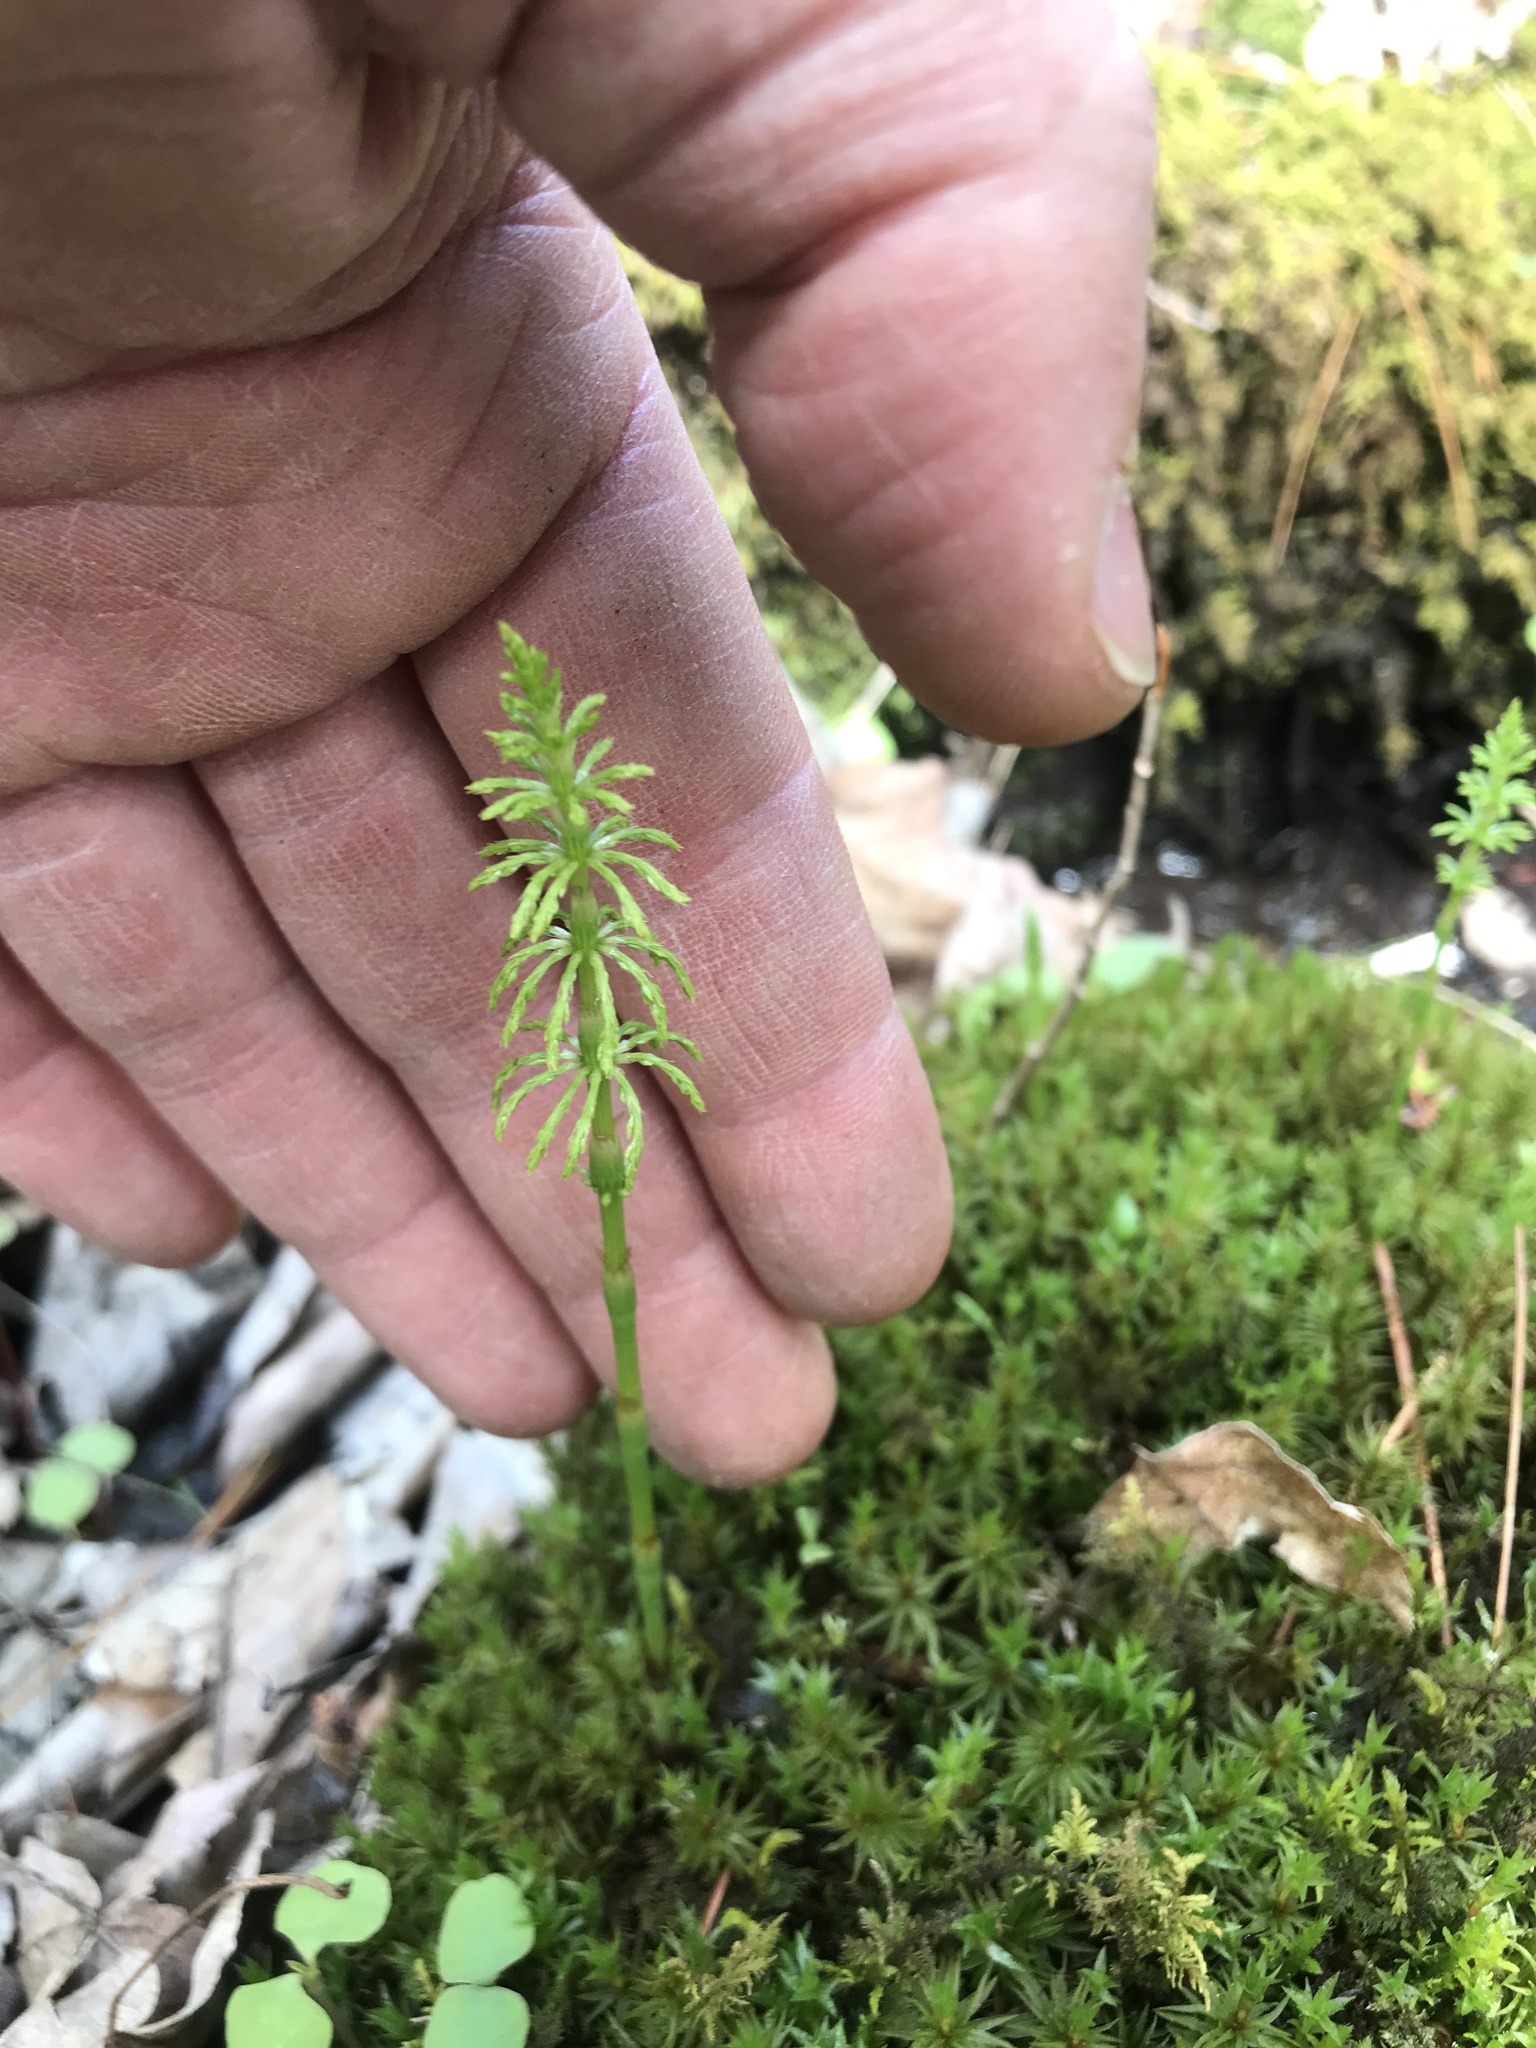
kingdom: Plantae
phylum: Tracheophyta
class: Polypodiopsida
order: Equisetales
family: Equisetaceae
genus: Equisetum
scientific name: Equisetum sylvaticum
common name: Wood horsetail
